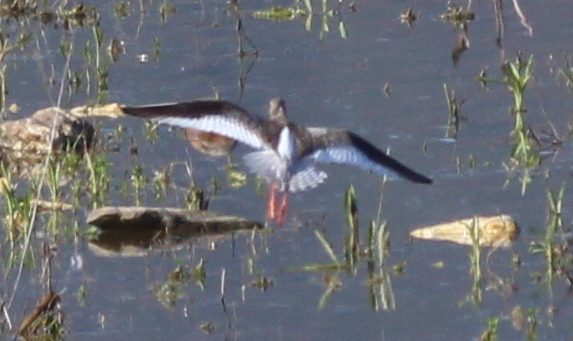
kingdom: Animalia
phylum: Chordata
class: Aves
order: Charadriiformes
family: Scolopacidae
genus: Tringa
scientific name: Tringa totanus
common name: Common redshank
